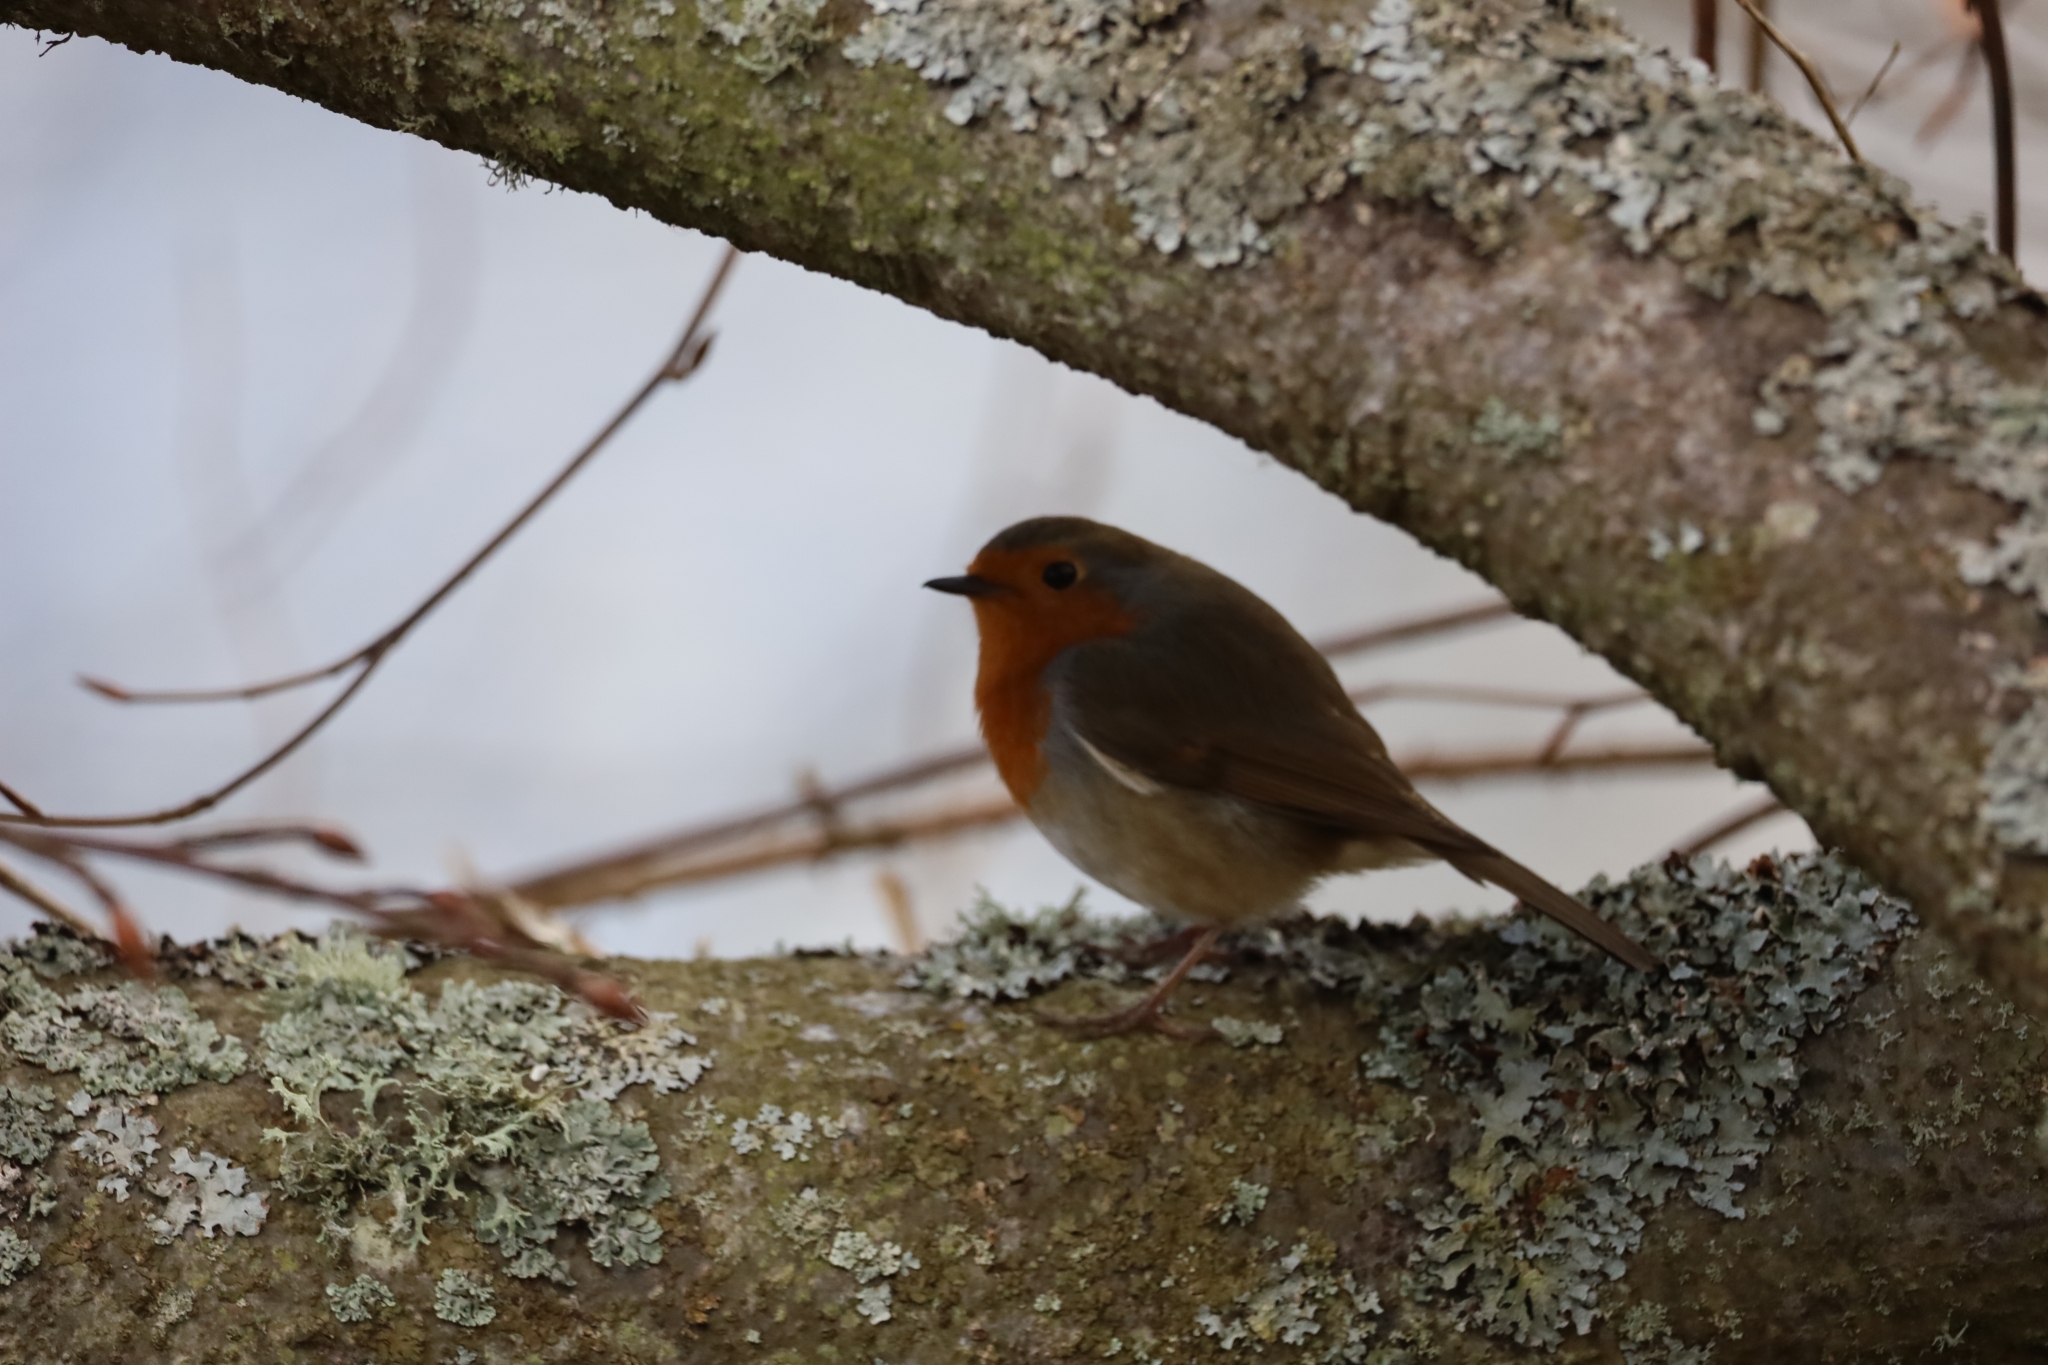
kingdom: Animalia
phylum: Chordata
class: Aves
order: Passeriformes
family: Muscicapidae
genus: Erithacus
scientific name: Erithacus rubecula
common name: European robin
